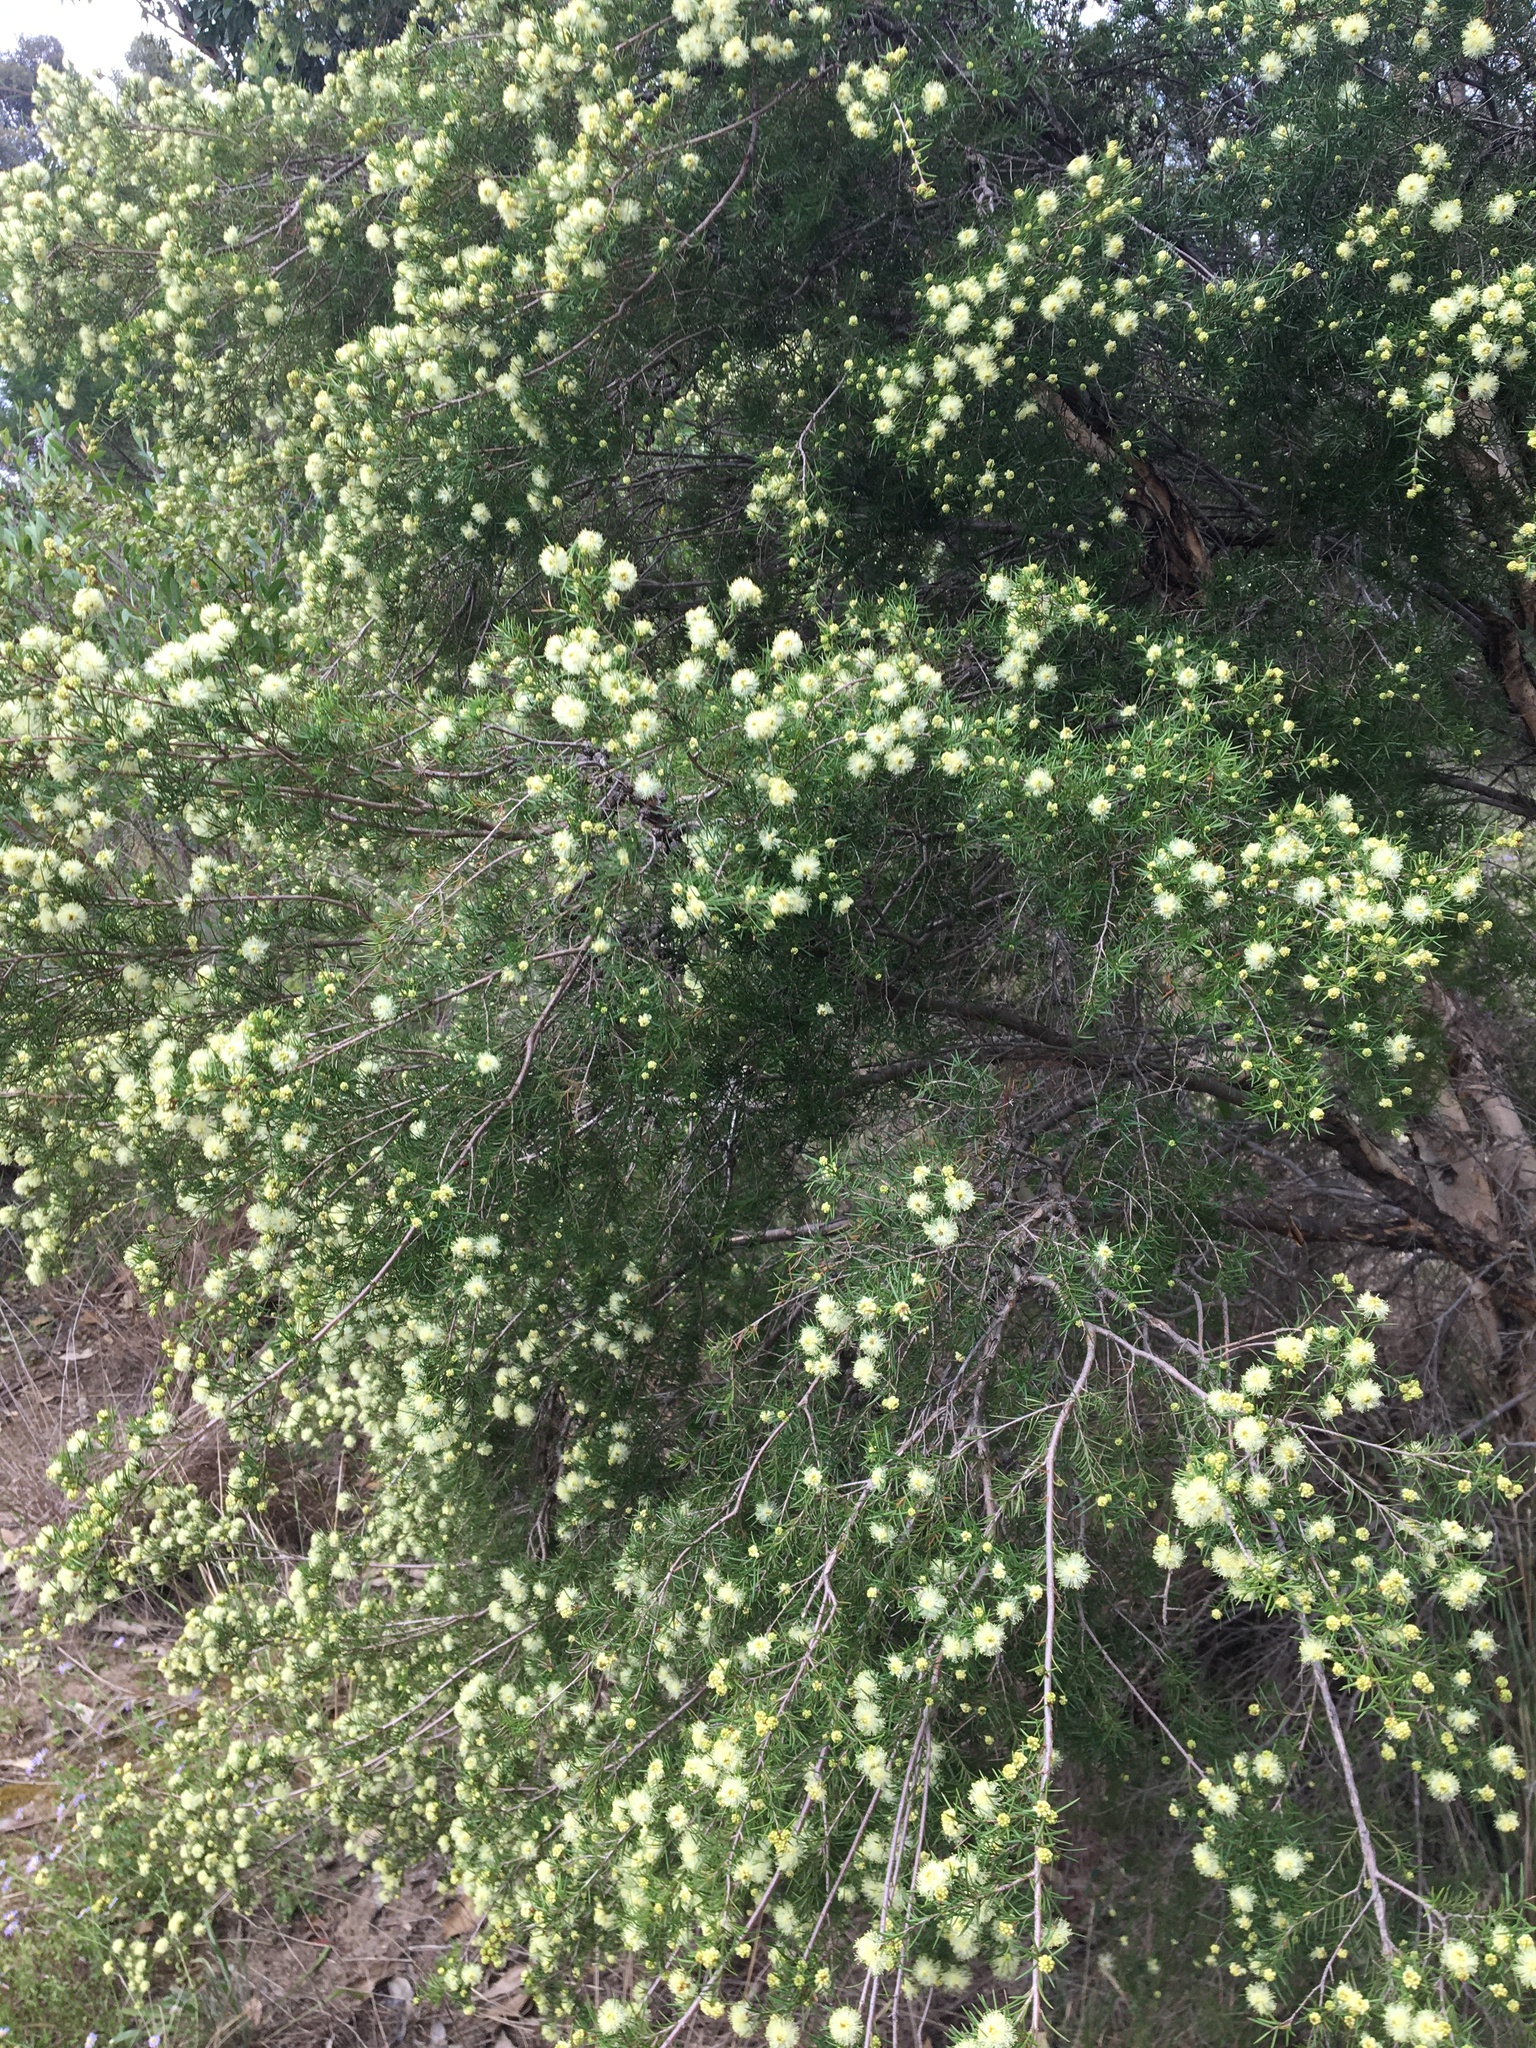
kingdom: Plantae
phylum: Tracheophyta
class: Magnoliopsida
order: Myrtales
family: Myrtaceae
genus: Melaleuca
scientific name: Melaleuca nodosa
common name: Prickly-leaf paperbark
